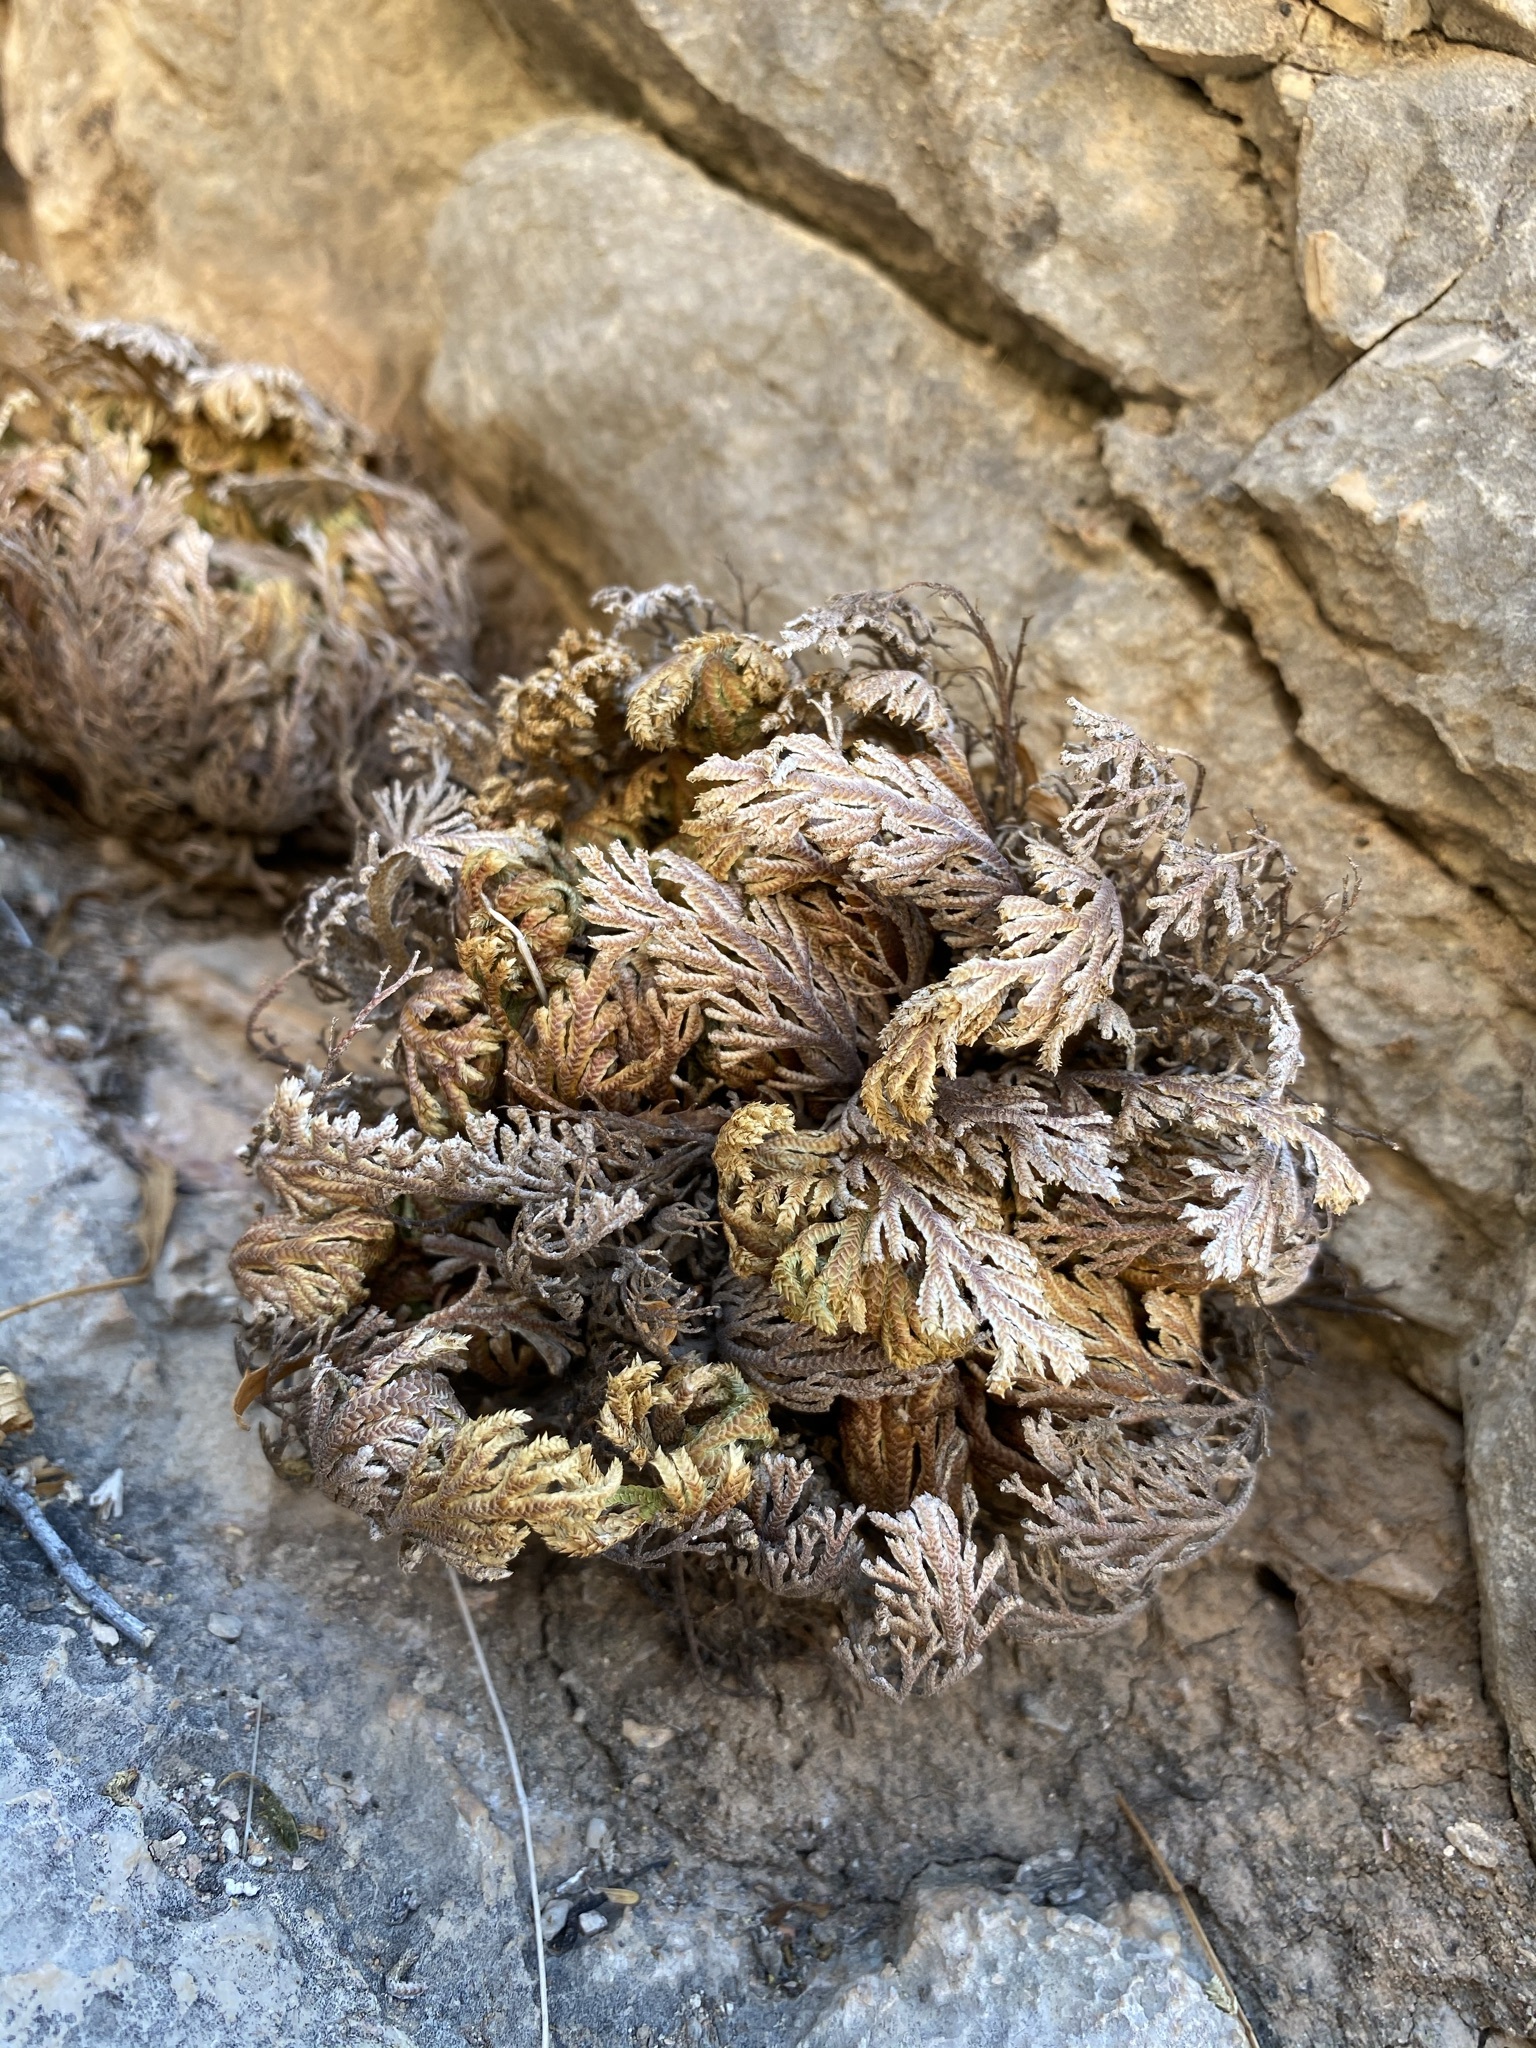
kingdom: Plantae
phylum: Tracheophyta
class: Lycopodiopsida
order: Selaginellales
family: Selaginellaceae
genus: Selaginella
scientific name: Selaginella lepidophylla
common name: Rose-of-jericho
